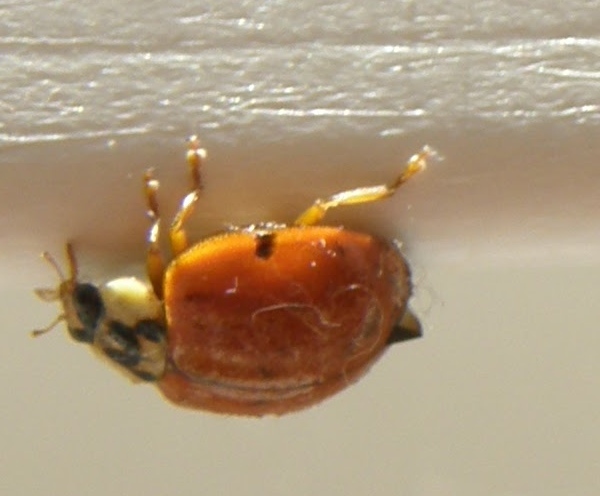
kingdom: Animalia
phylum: Arthropoda
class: Insecta
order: Coleoptera
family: Coccinellidae
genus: Harmonia
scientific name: Harmonia axyridis
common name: Harlequin ladybird
